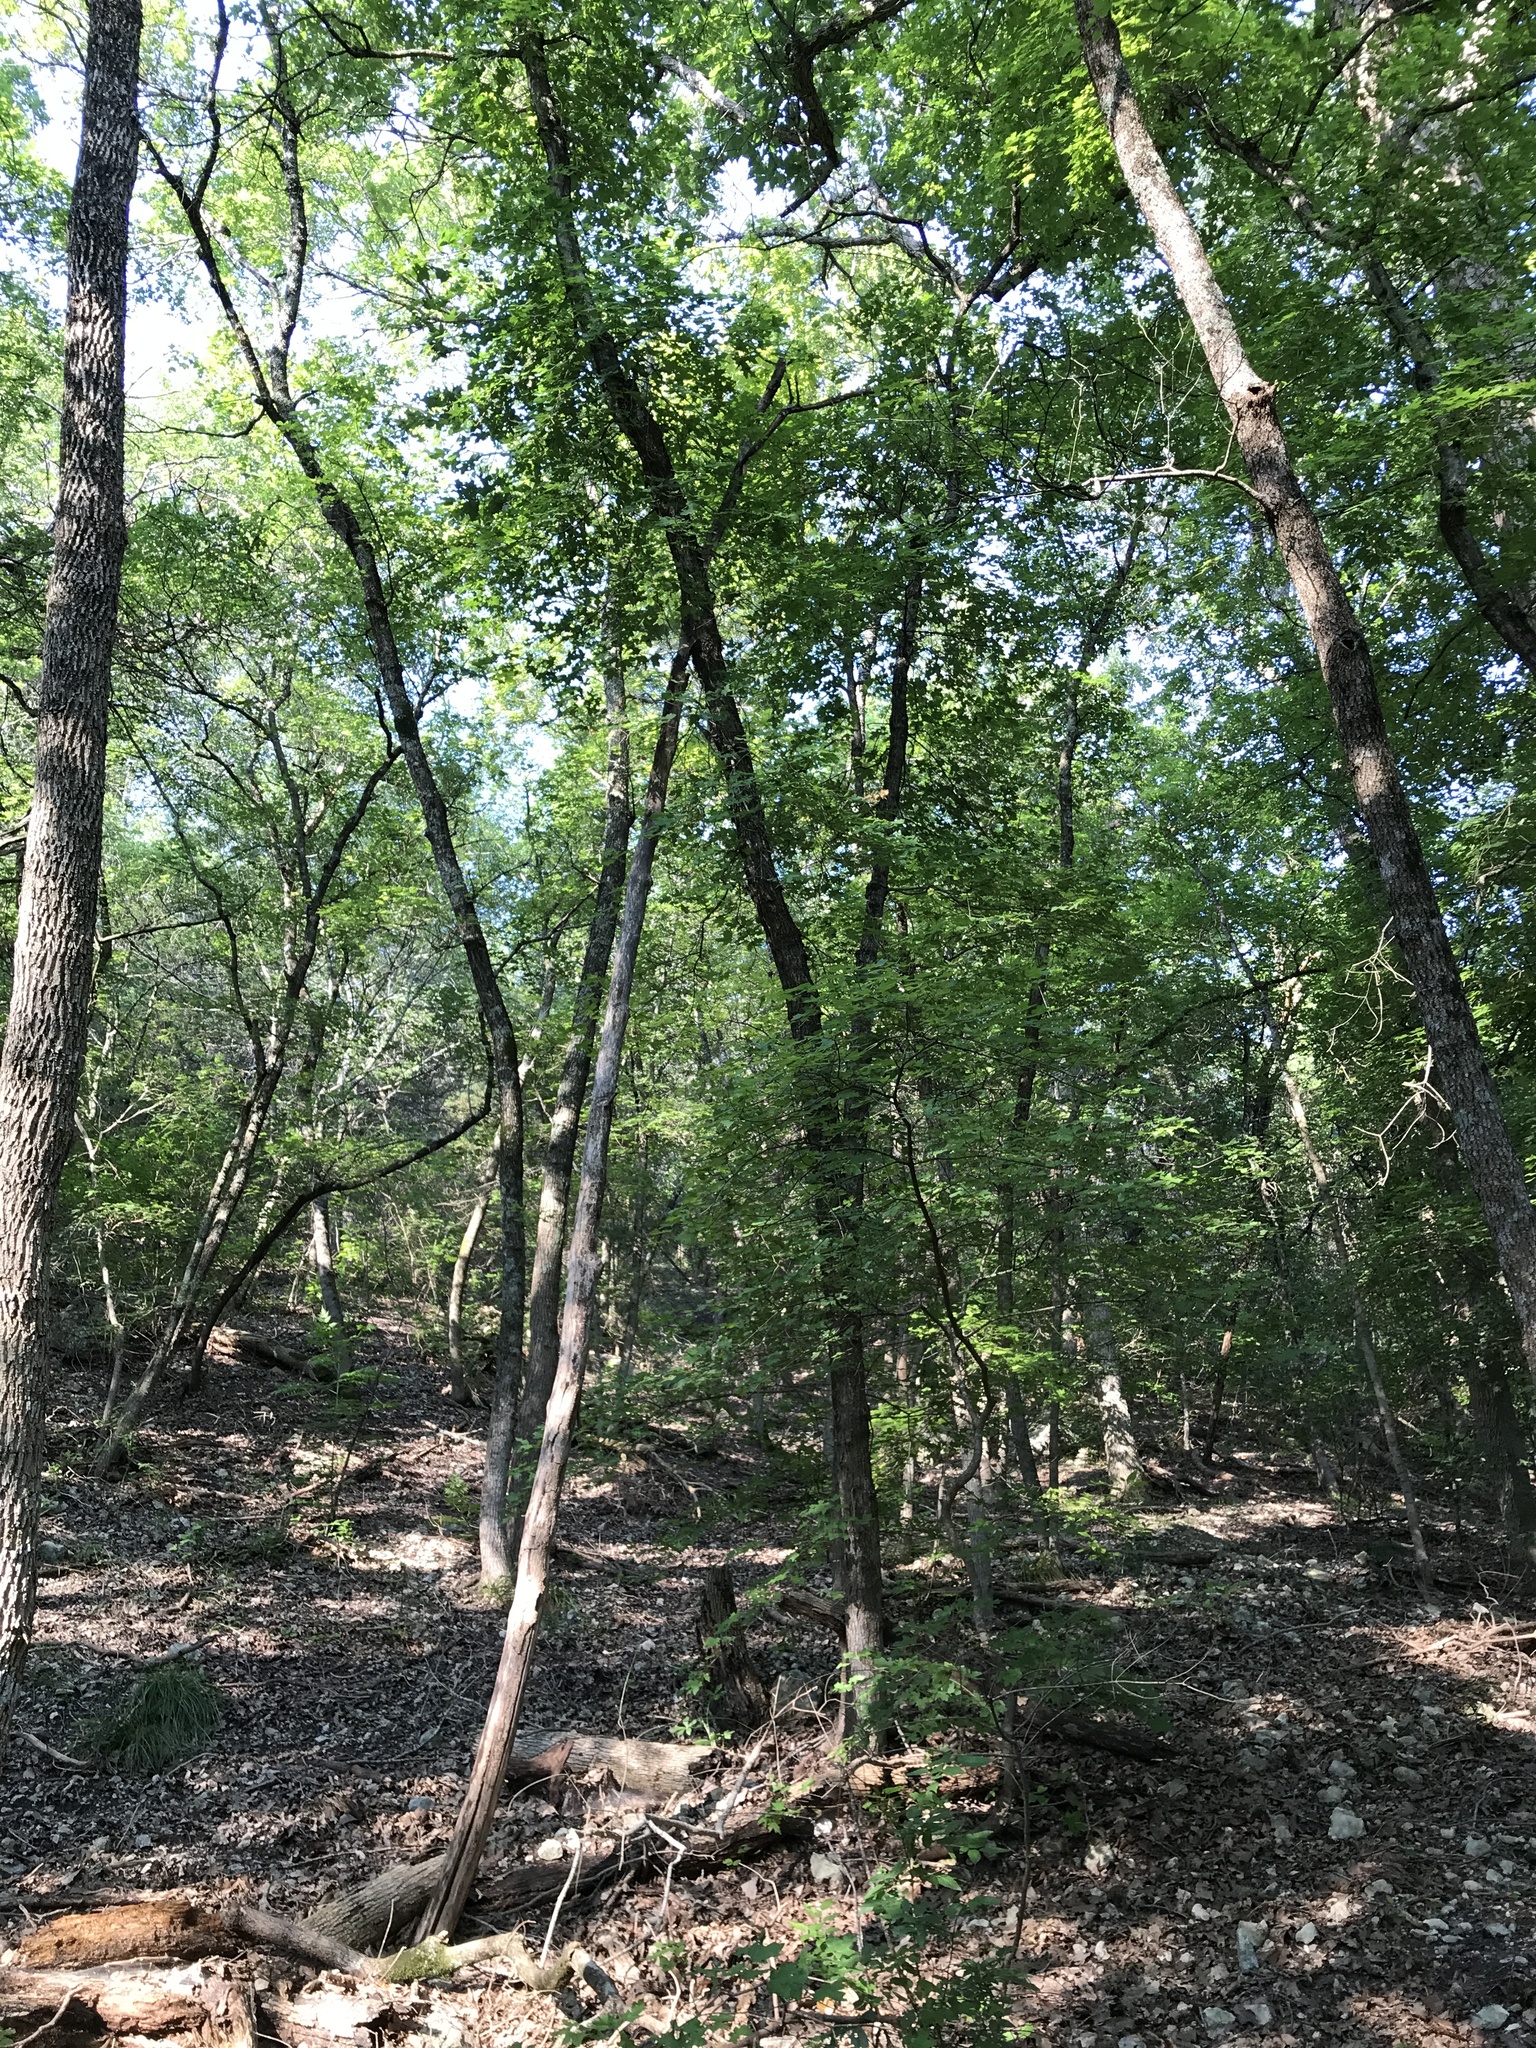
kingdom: Plantae
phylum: Tracheophyta
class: Magnoliopsida
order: Sapindales
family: Sapindaceae
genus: Acer
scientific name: Acer grandidentatum
